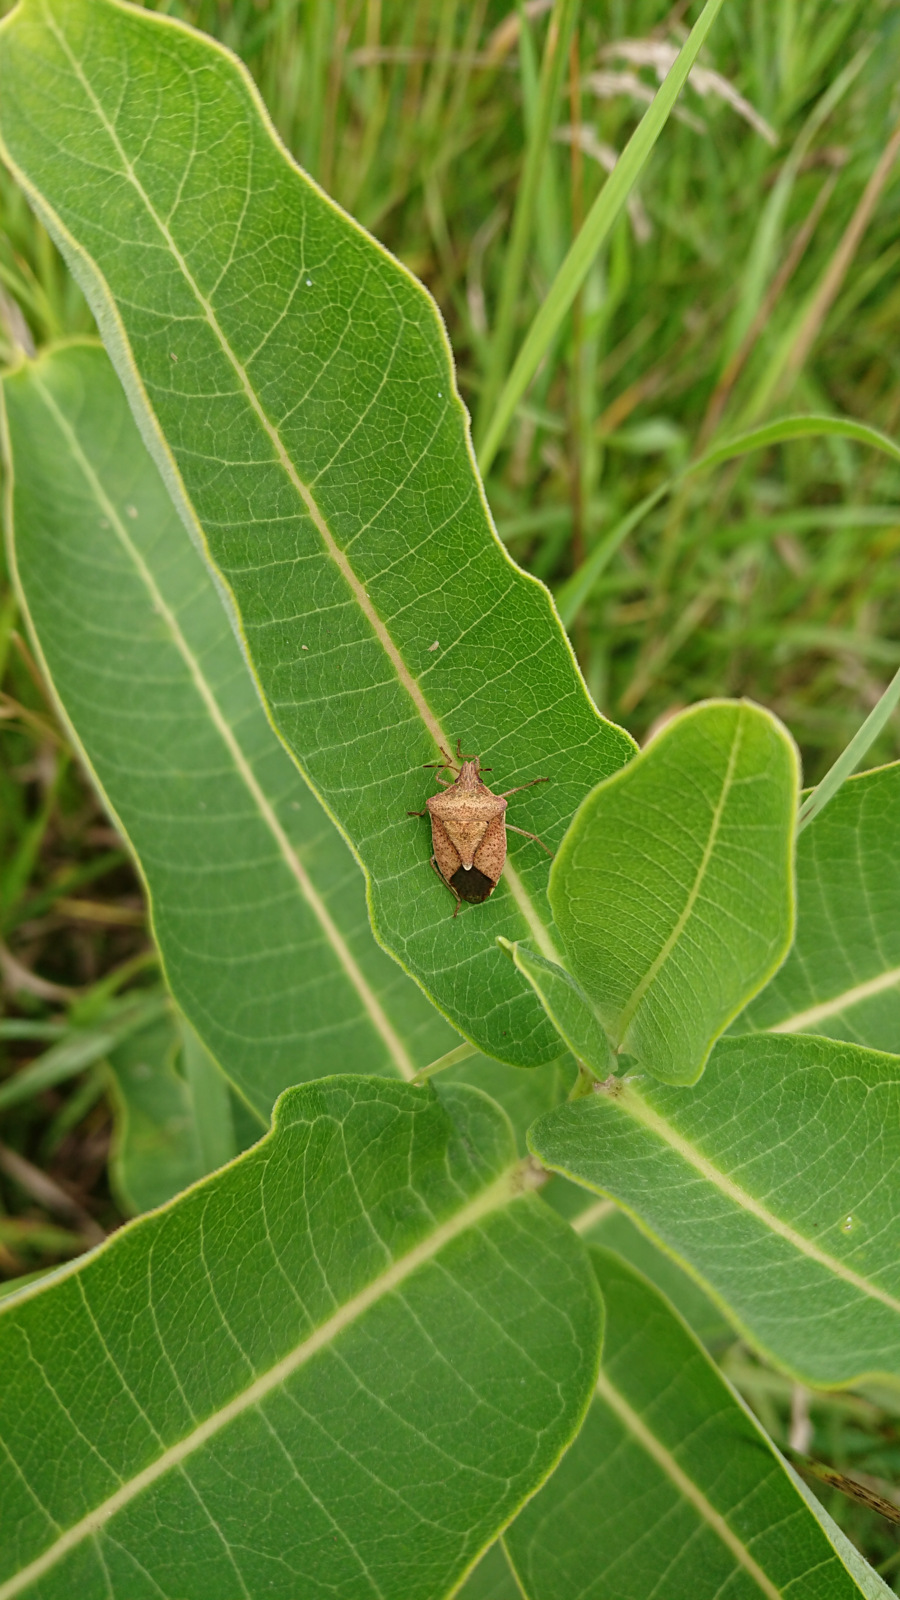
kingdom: Plantae
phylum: Tracheophyta
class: Magnoliopsida
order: Gentianales
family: Apocynaceae
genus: Asclepias
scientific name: Asclepias syriaca
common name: Common milkweed
